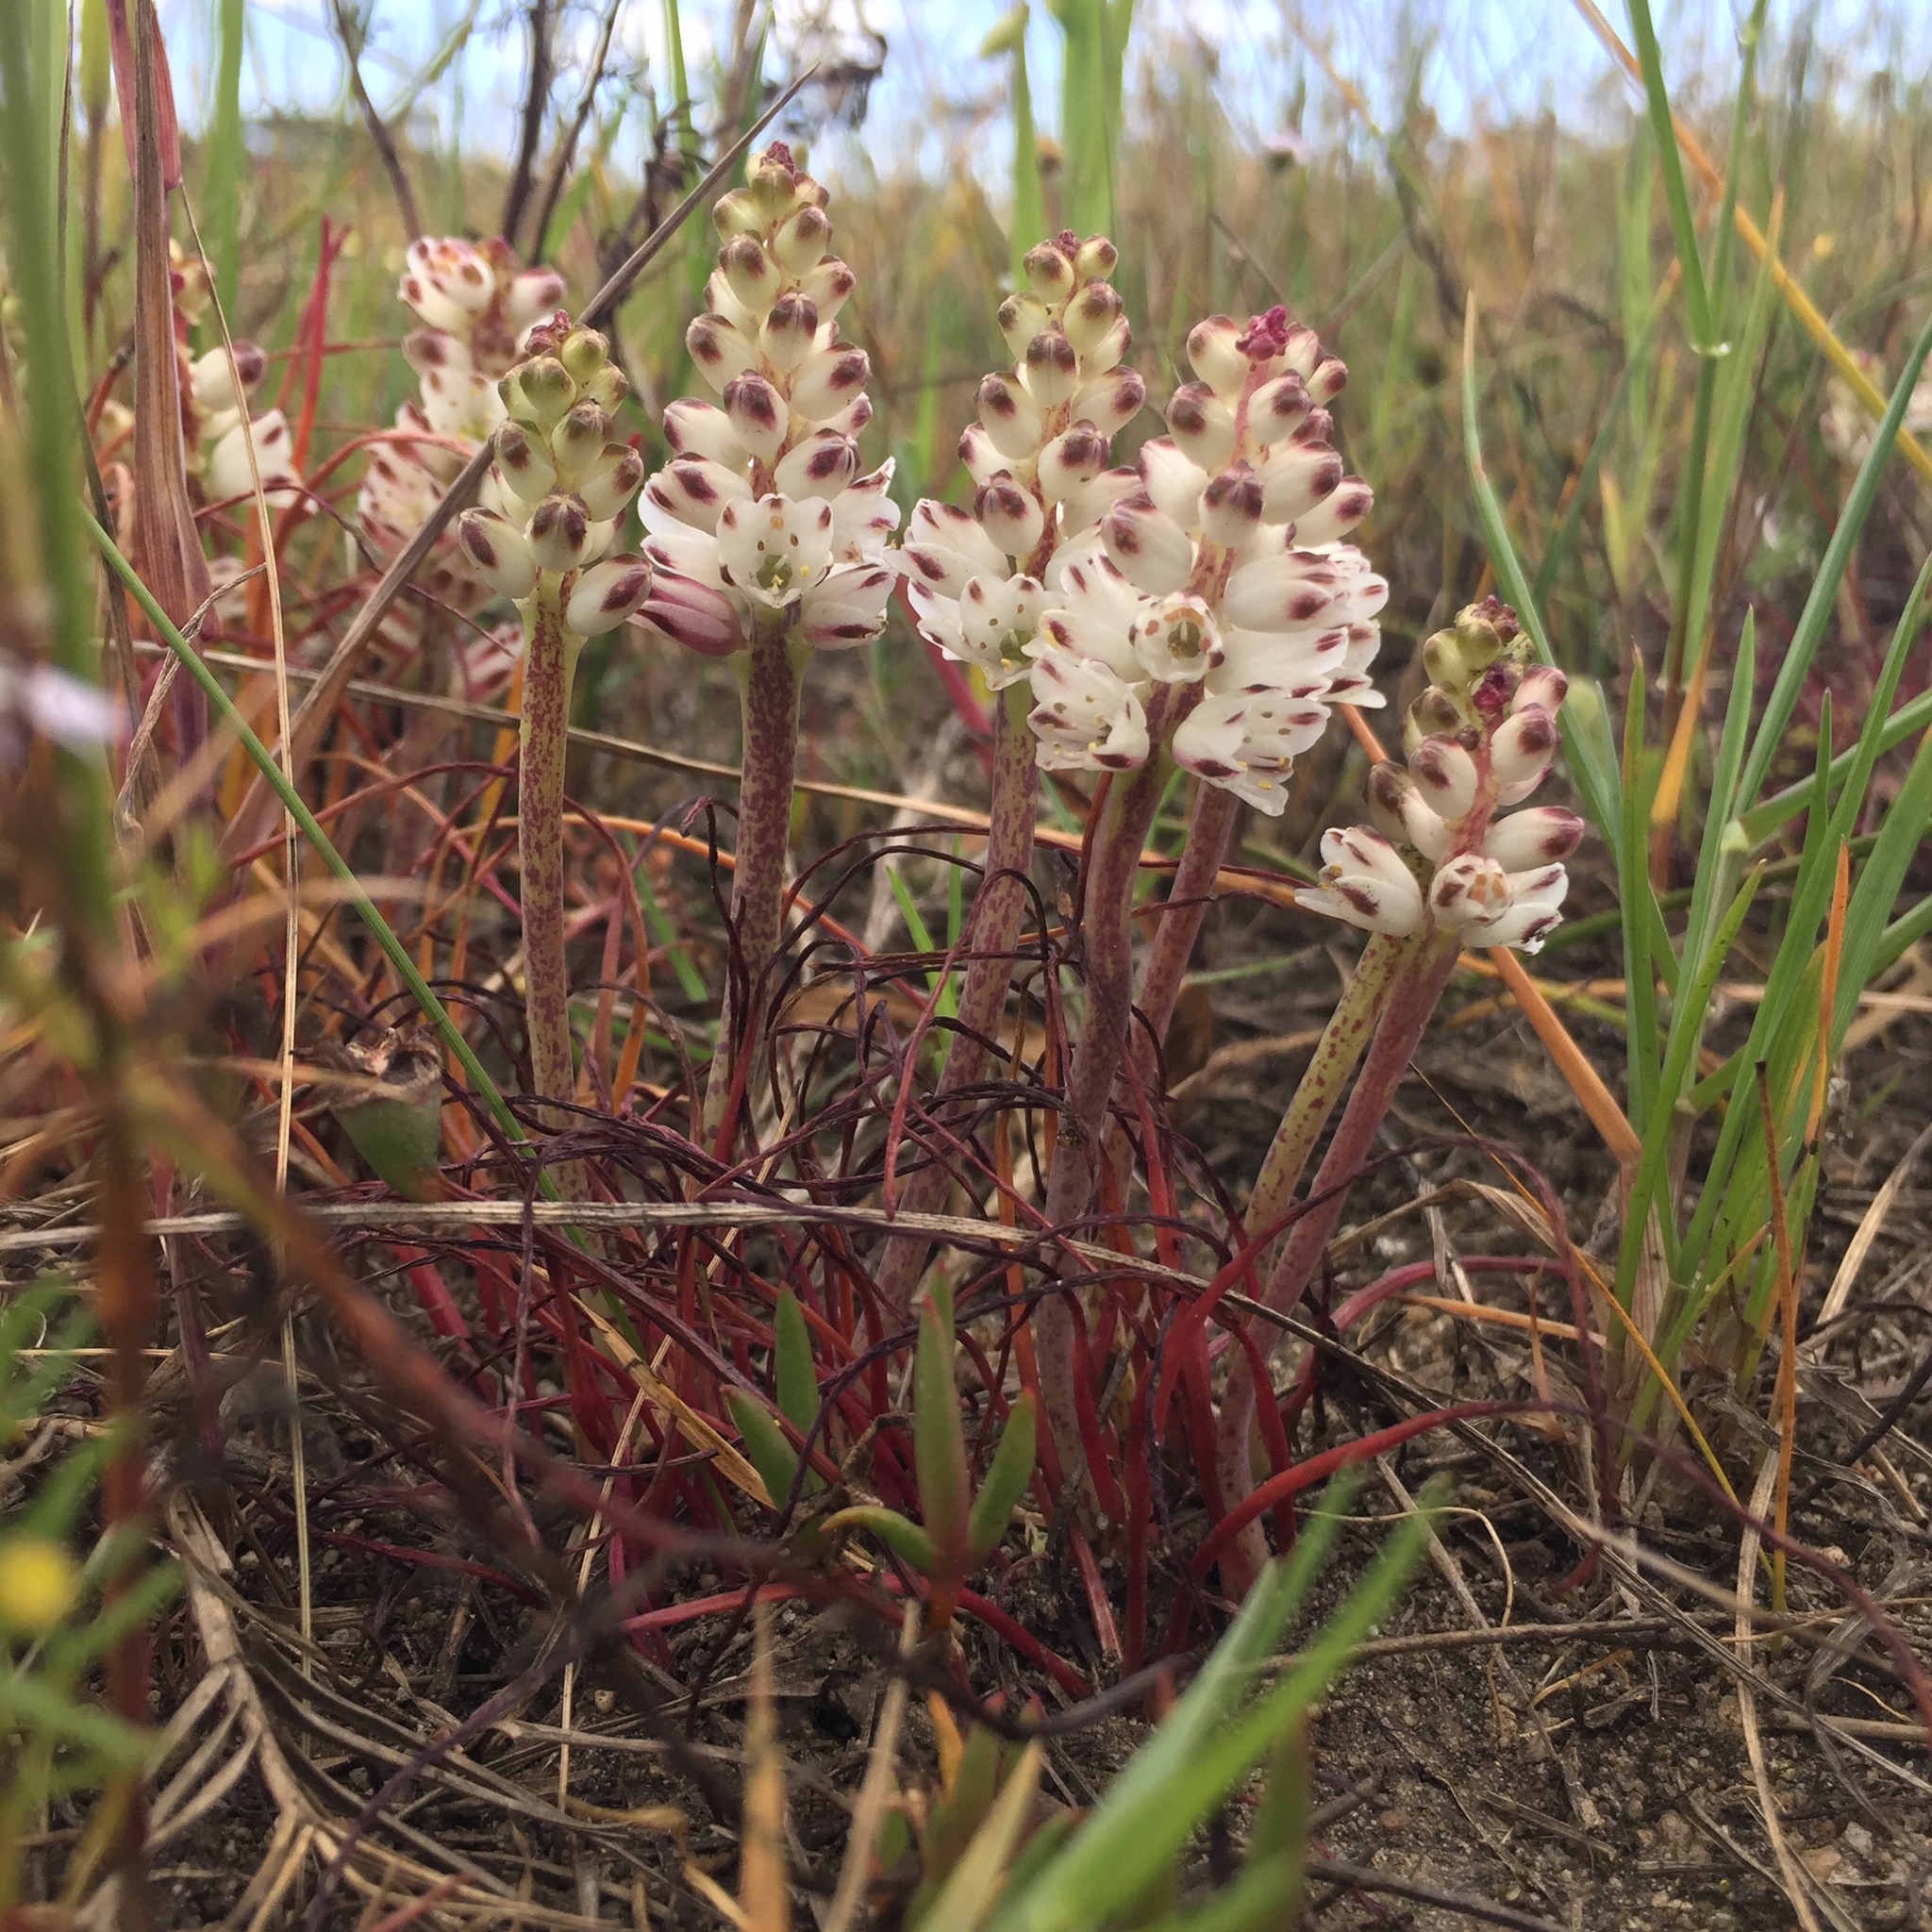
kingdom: Plantae
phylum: Tracheophyta
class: Liliopsida
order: Asparagales
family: Asparagaceae
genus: Lachenalia
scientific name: Lachenalia contaminata
